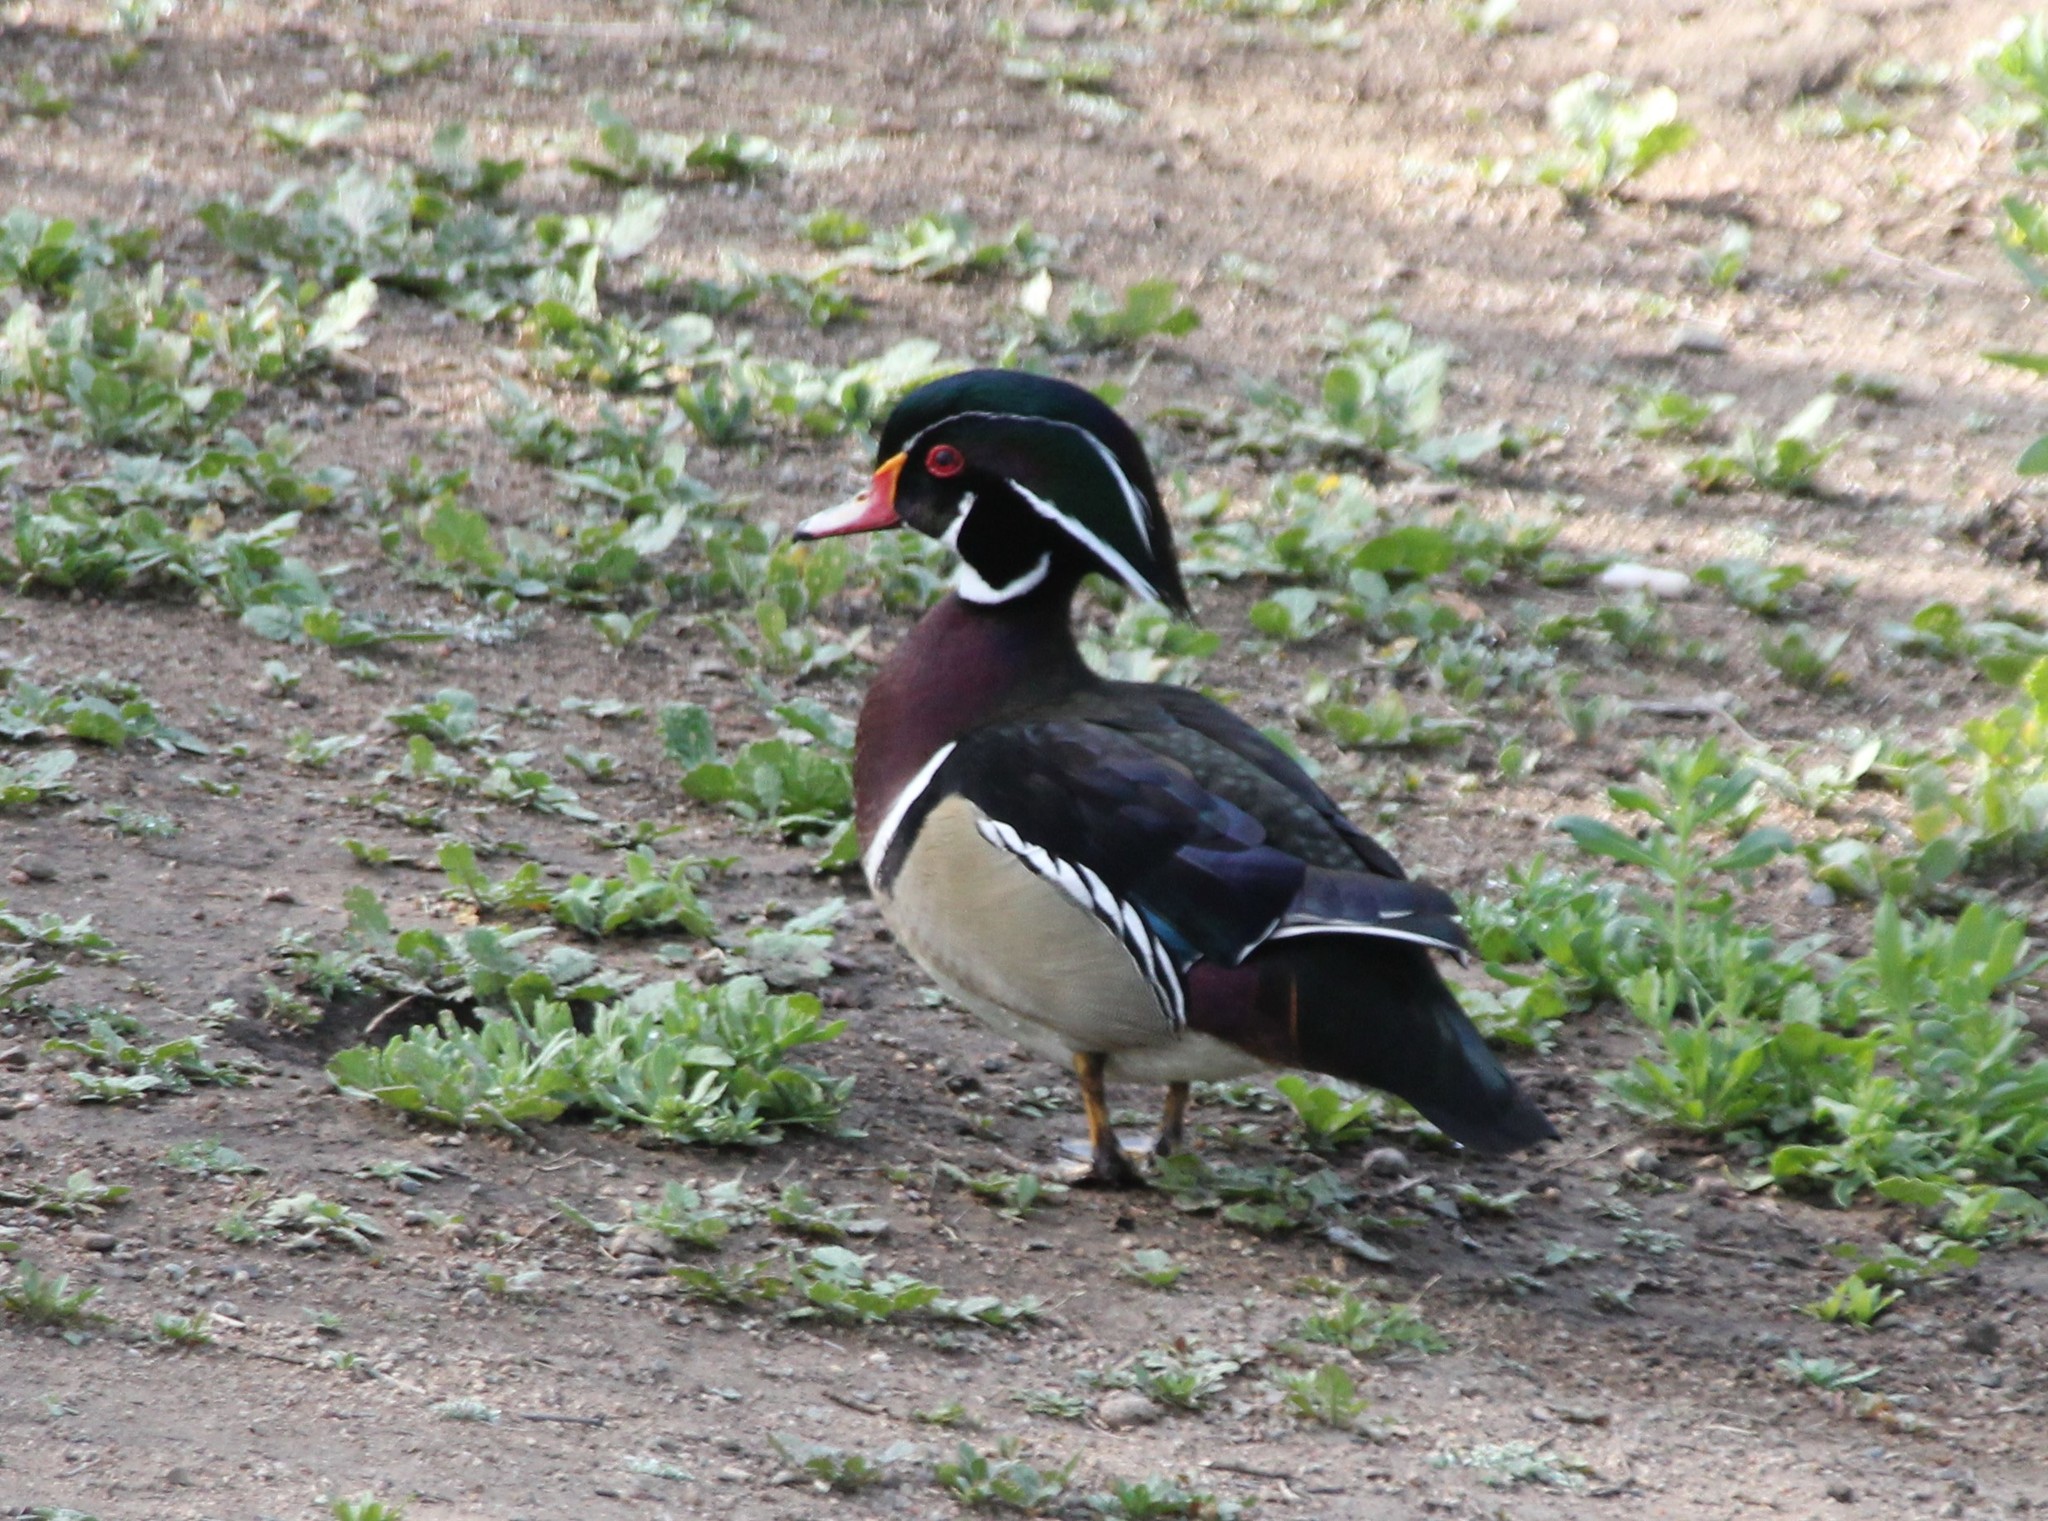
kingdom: Animalia
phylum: Chordata
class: Aves
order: Anseriformes
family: Anatidae
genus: Aix
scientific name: Aix sponsa
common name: Wood duck
